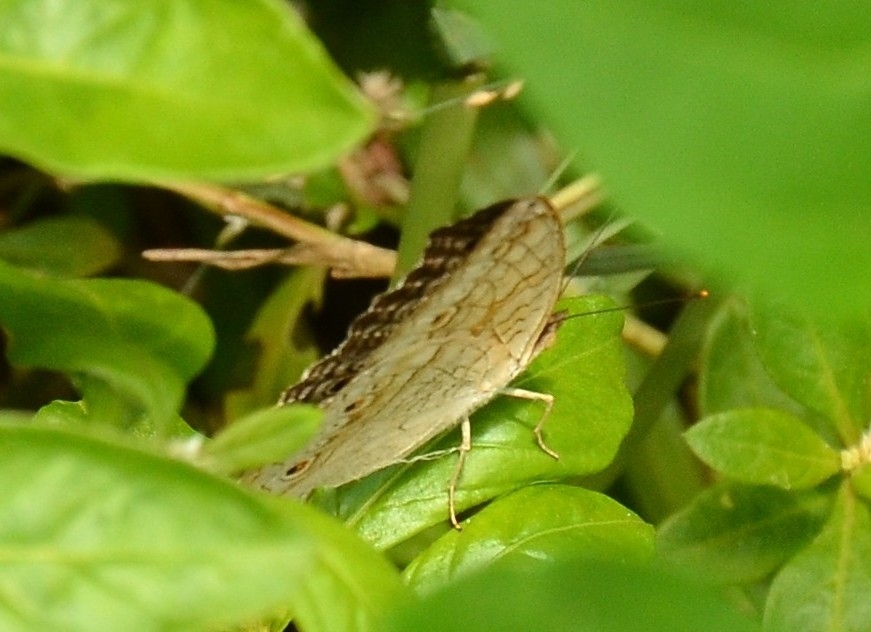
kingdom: Animalia
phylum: Arthropoda
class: Insecta
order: Lepidoptera
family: Nymphalidae
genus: Junonia
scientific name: Junonia atlites
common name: Grey pansy
